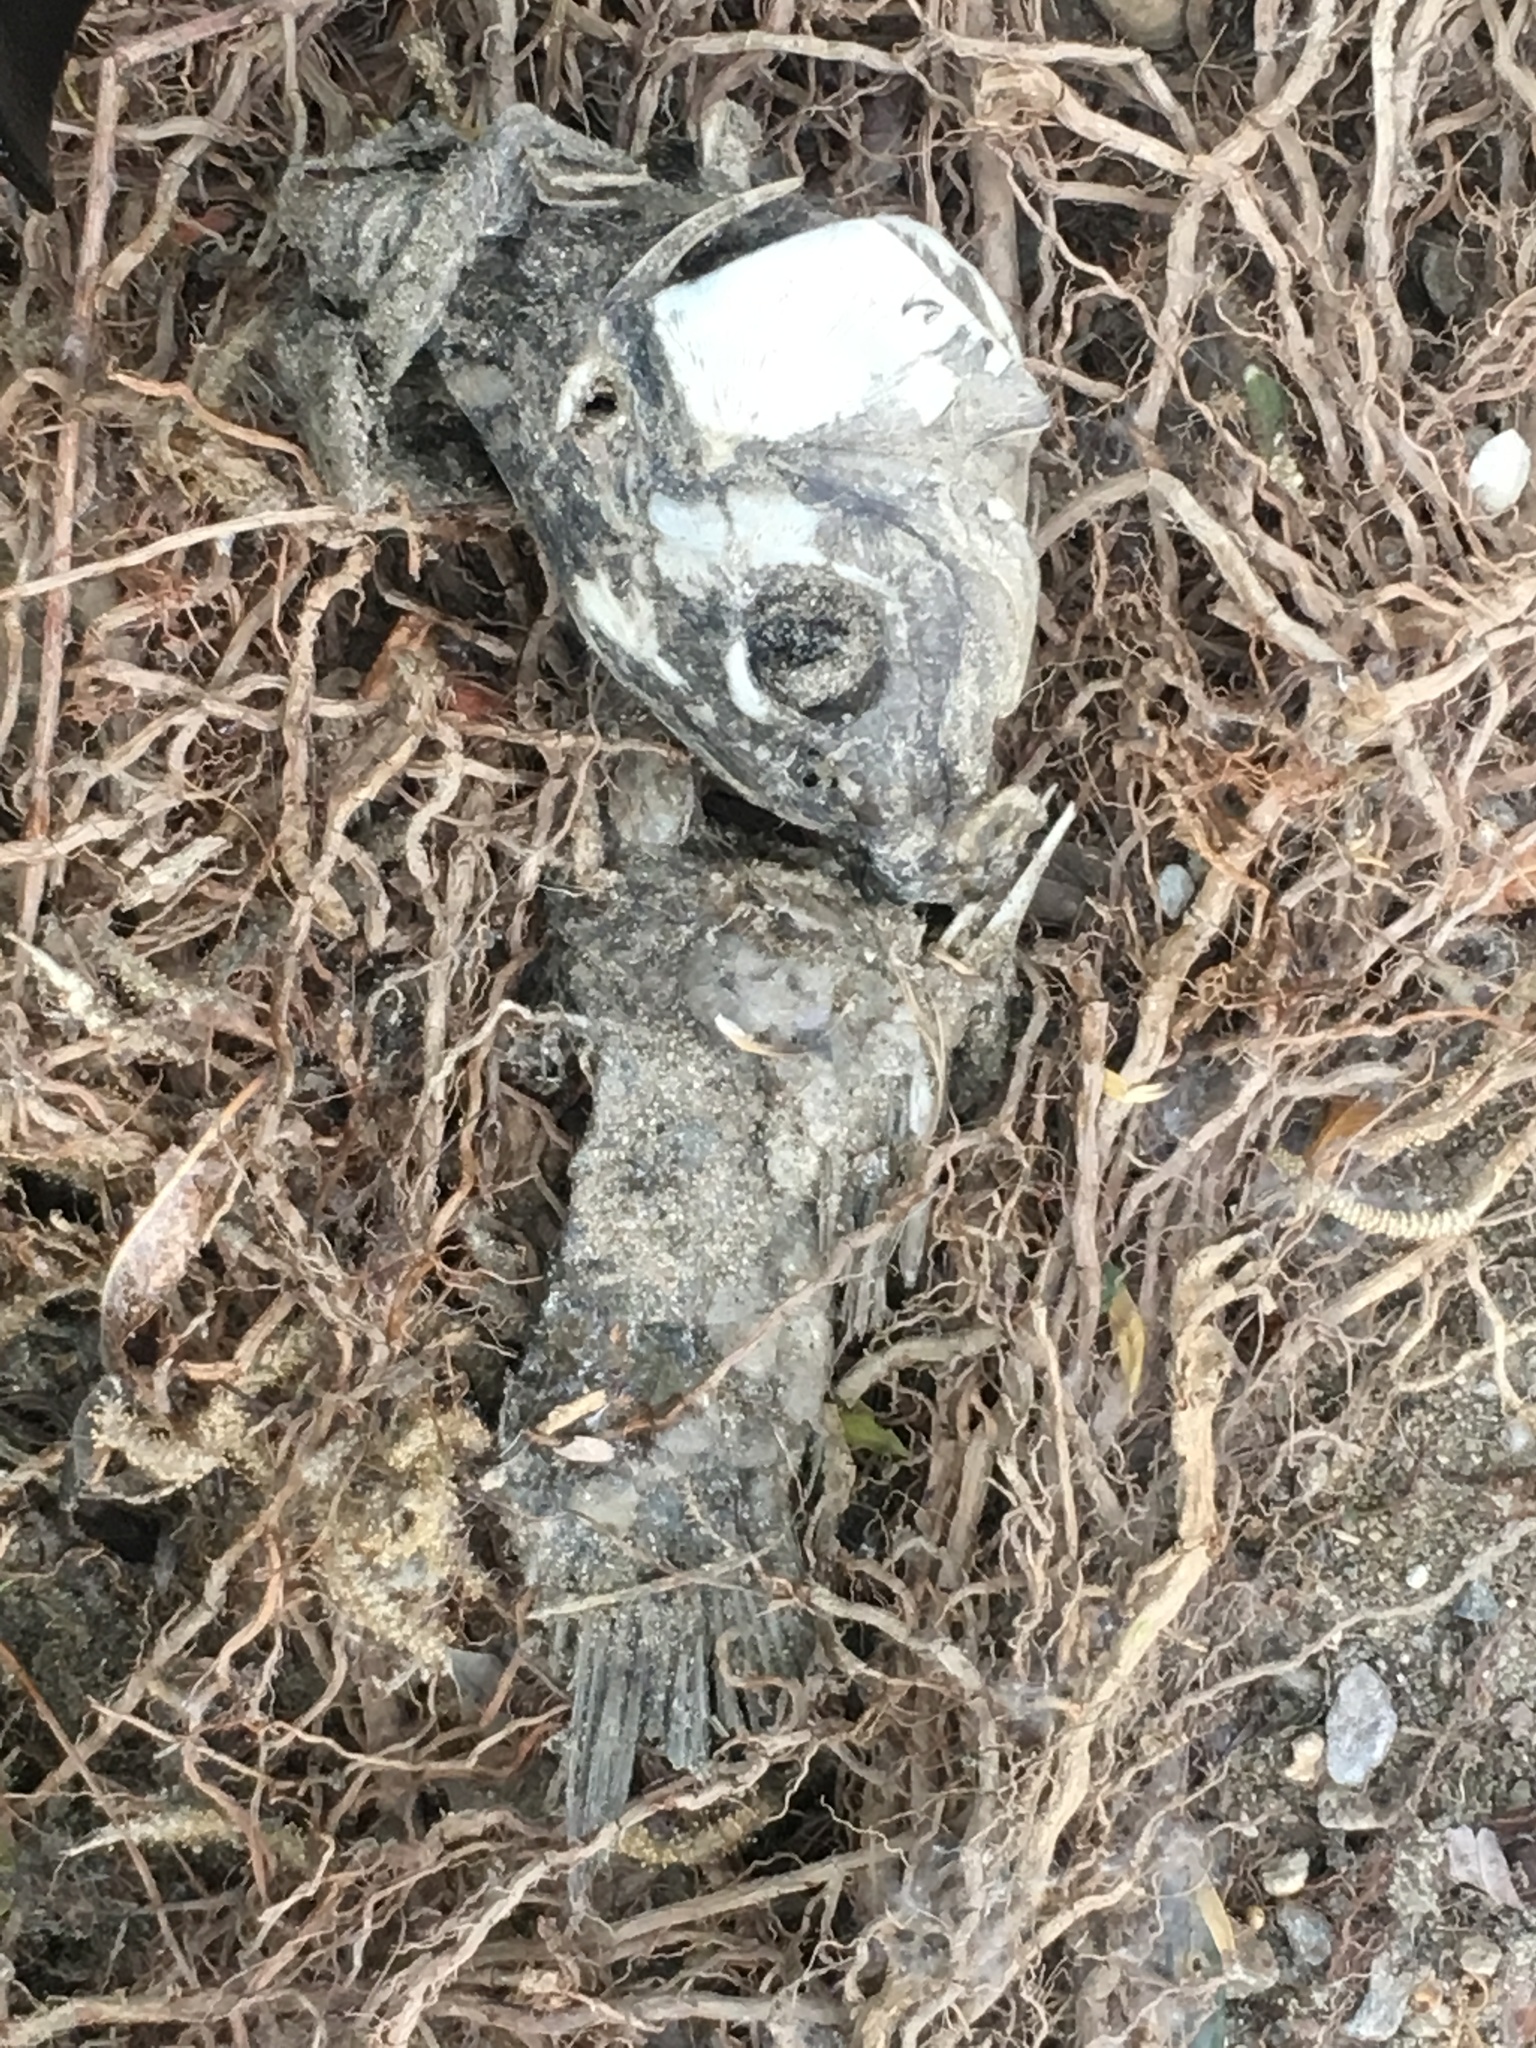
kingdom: Animalia
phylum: Chordata
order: Cypriniformes
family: Cyprinidae
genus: Cyprinus
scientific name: Cyprinus carpio
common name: Common carp
